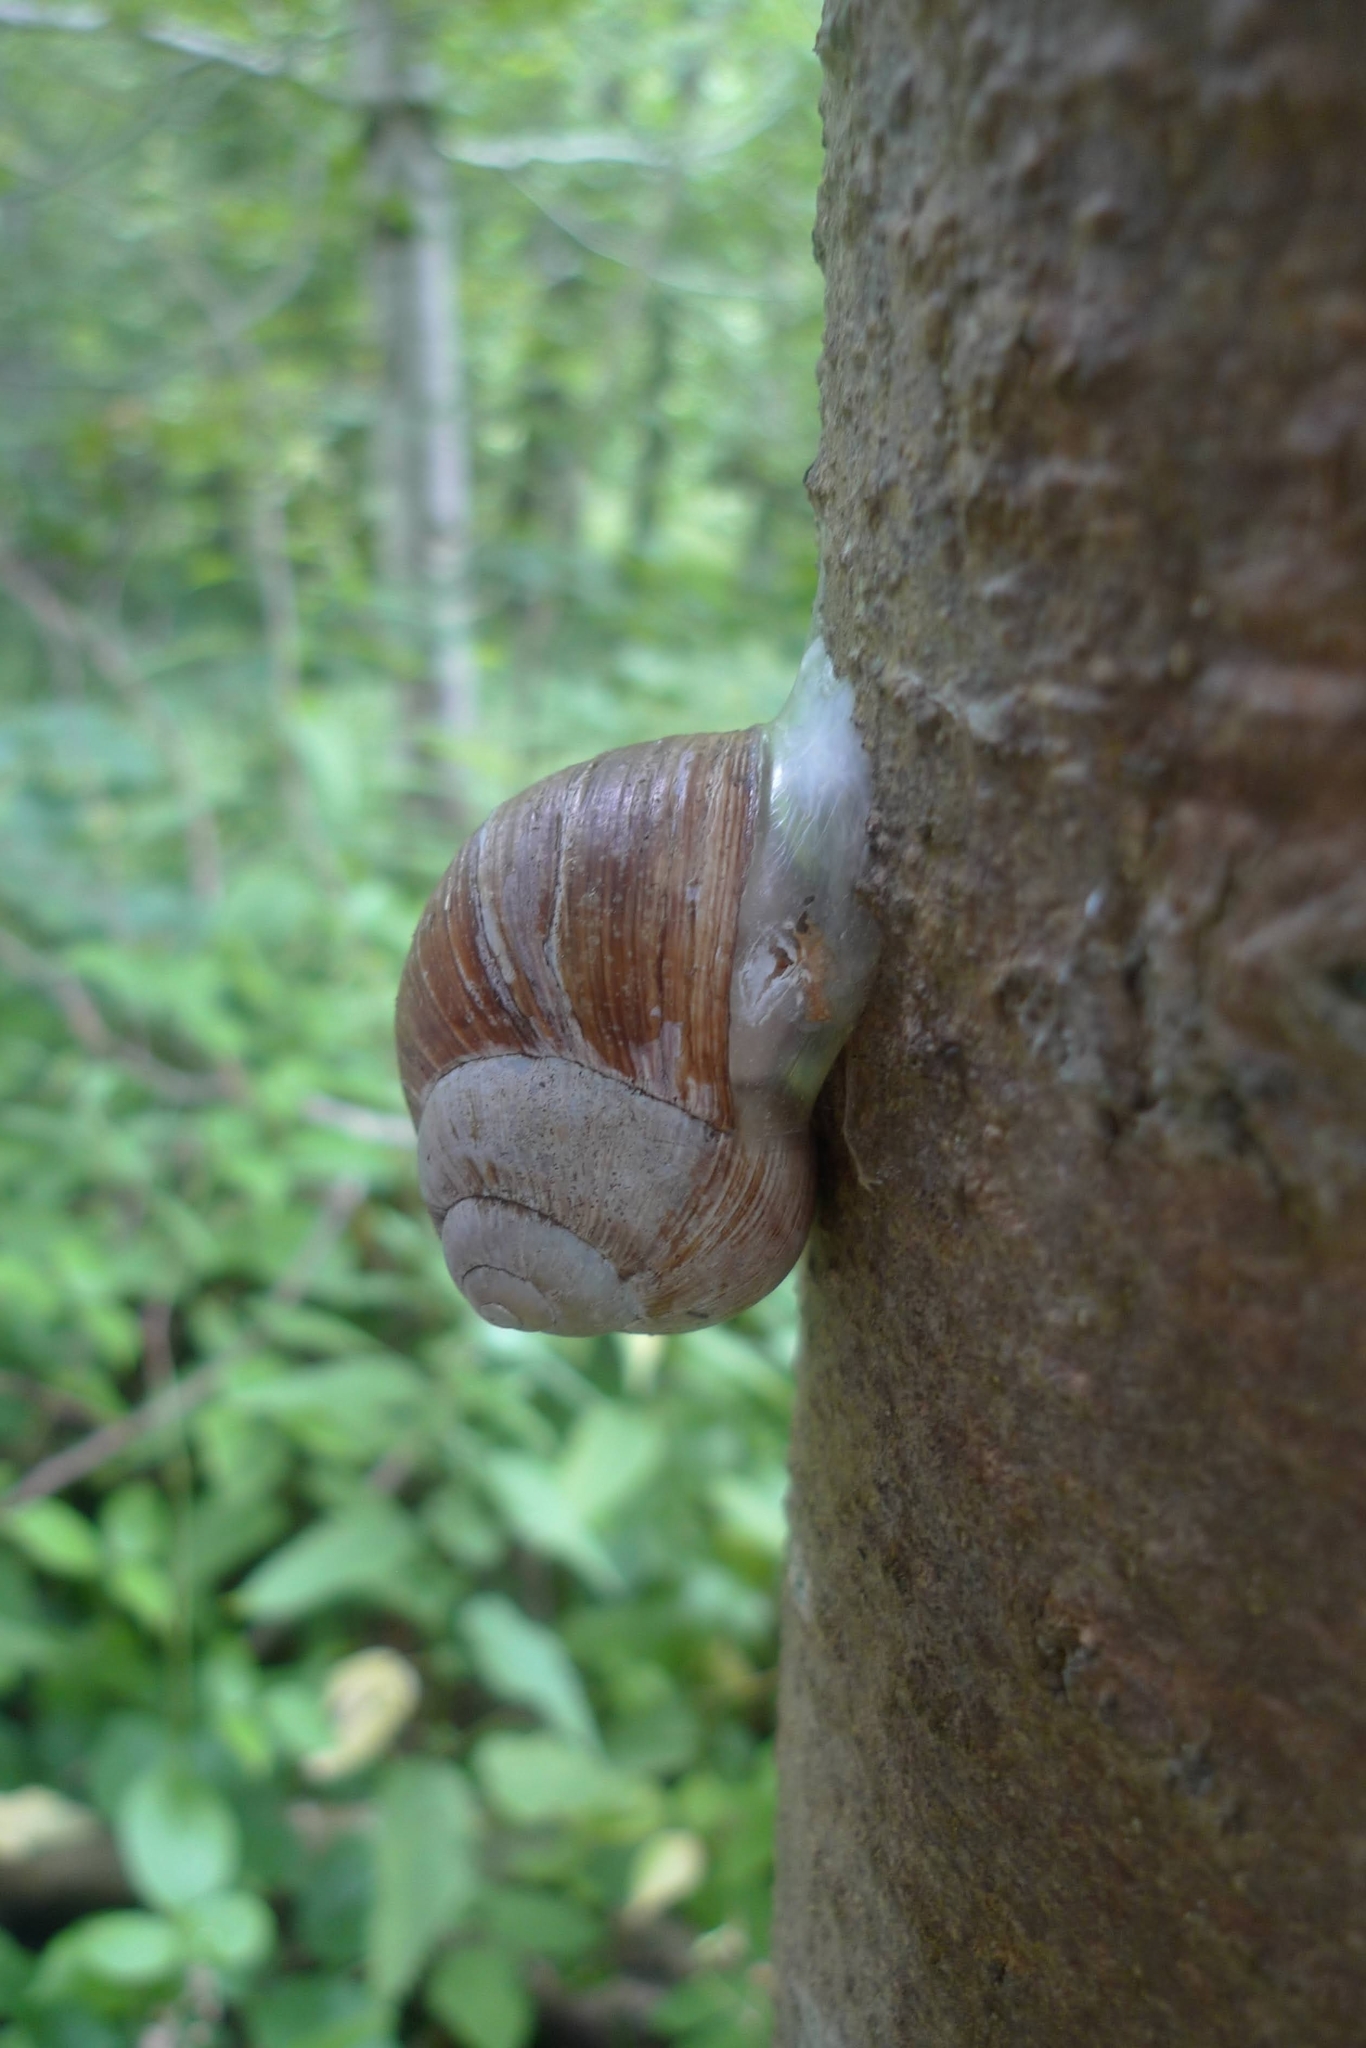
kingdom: Animalia
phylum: Mollusca
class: Gastropoda
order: Stylommatophora
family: Helicidae
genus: Helix
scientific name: Helix pomatia
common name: Roman snail
